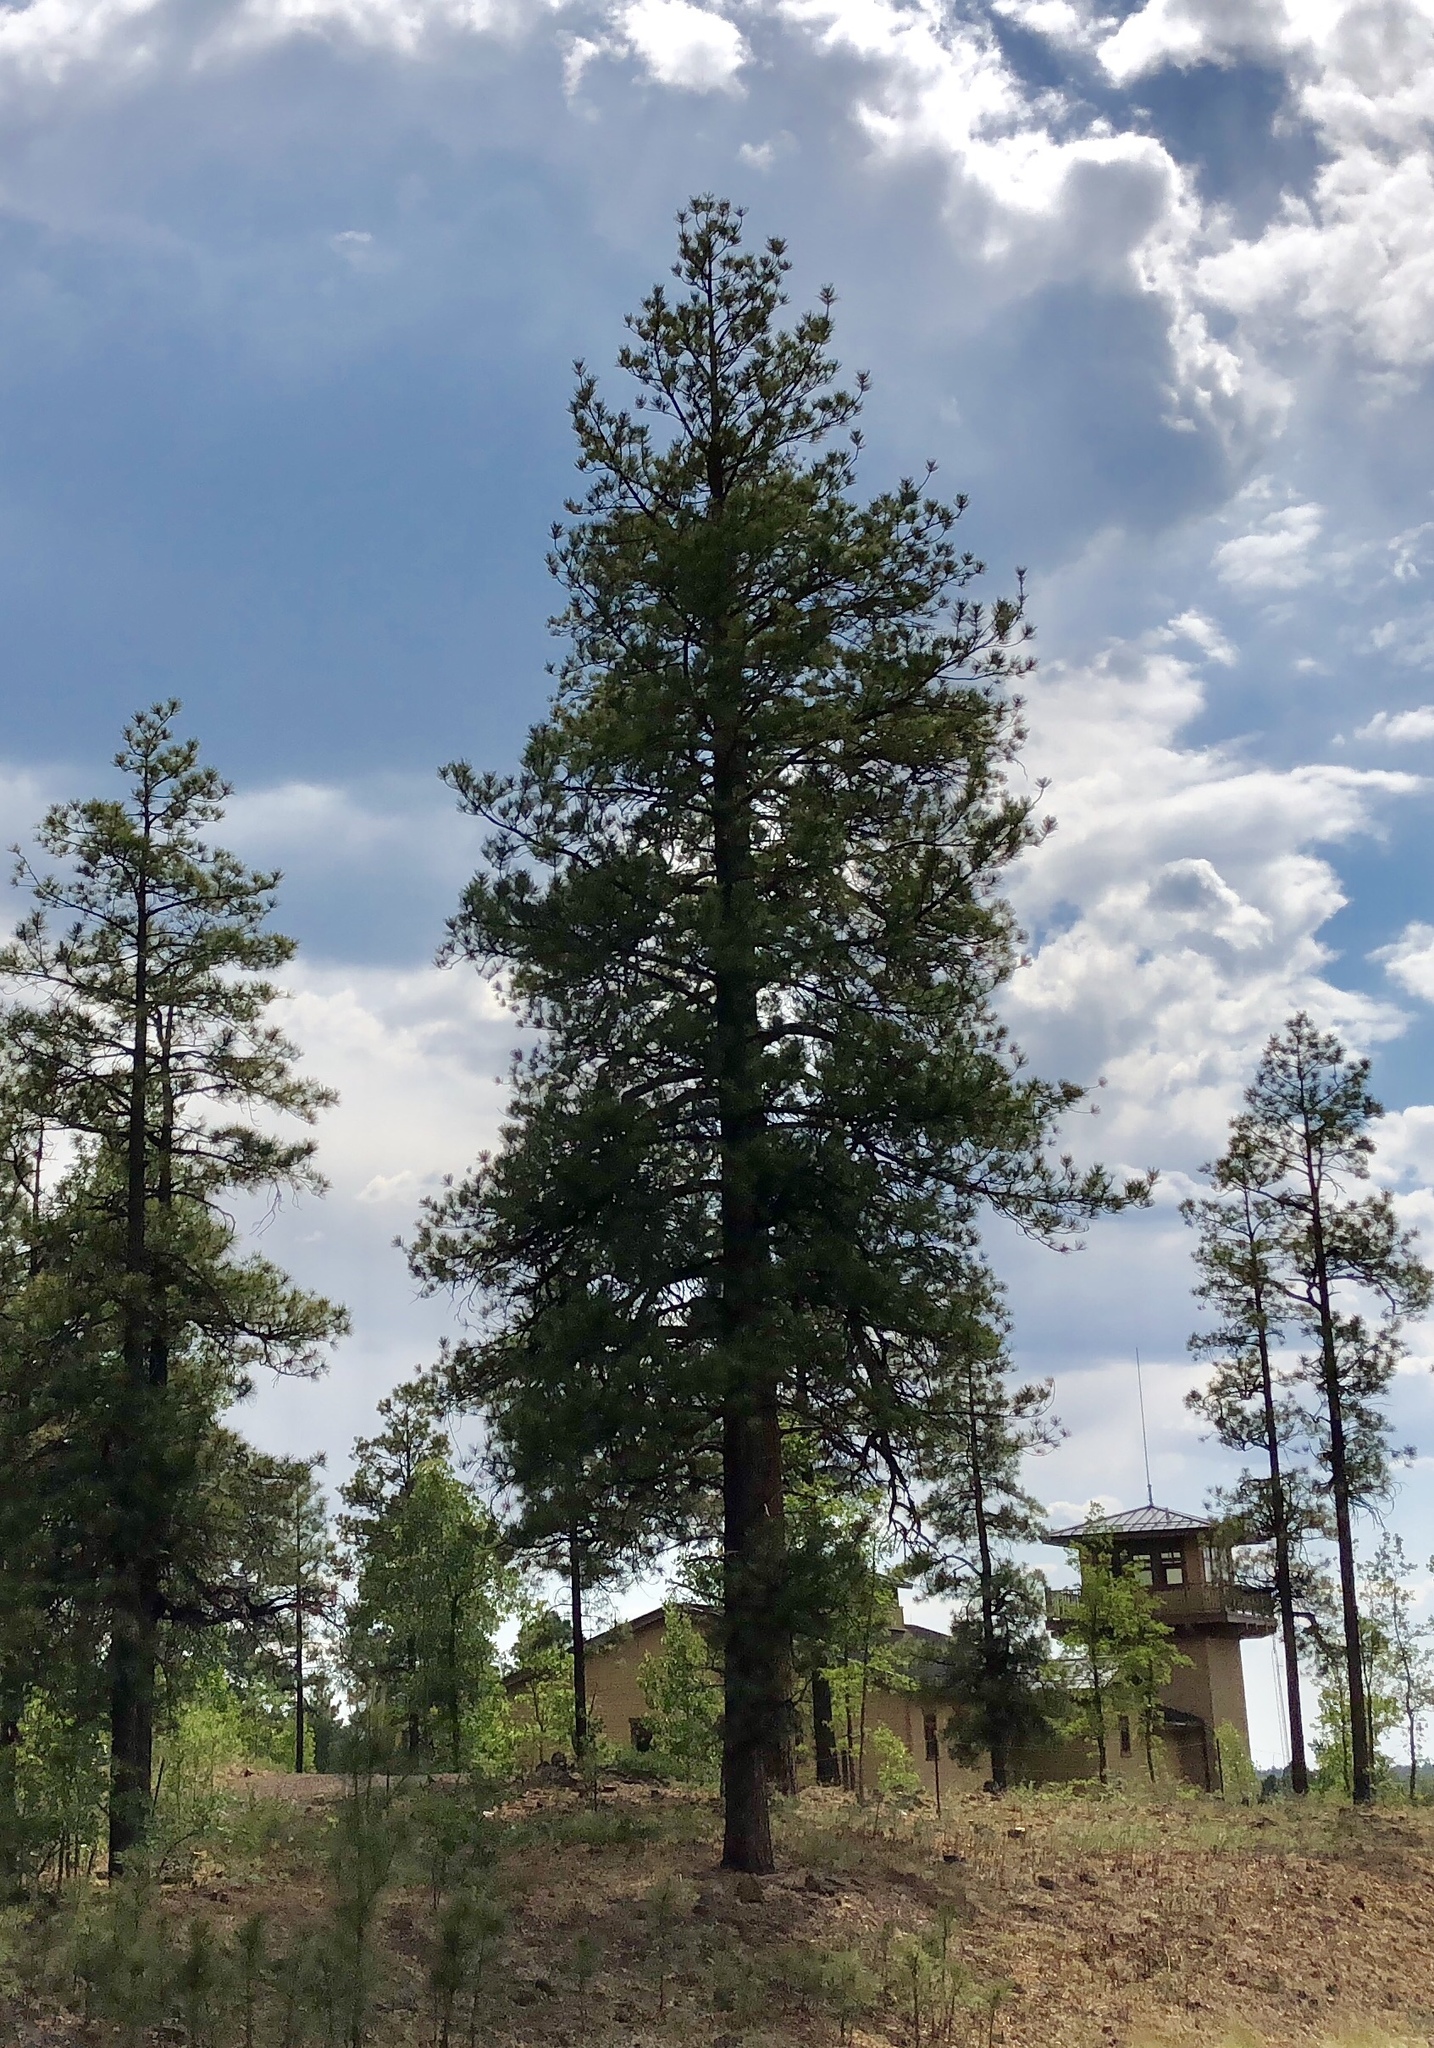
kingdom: Plantae
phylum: Tracheophyta
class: Pinopsida
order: Pinales
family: Pinaceae
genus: Pinus
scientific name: Pinus ponderosa
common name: Western yellow-pine
